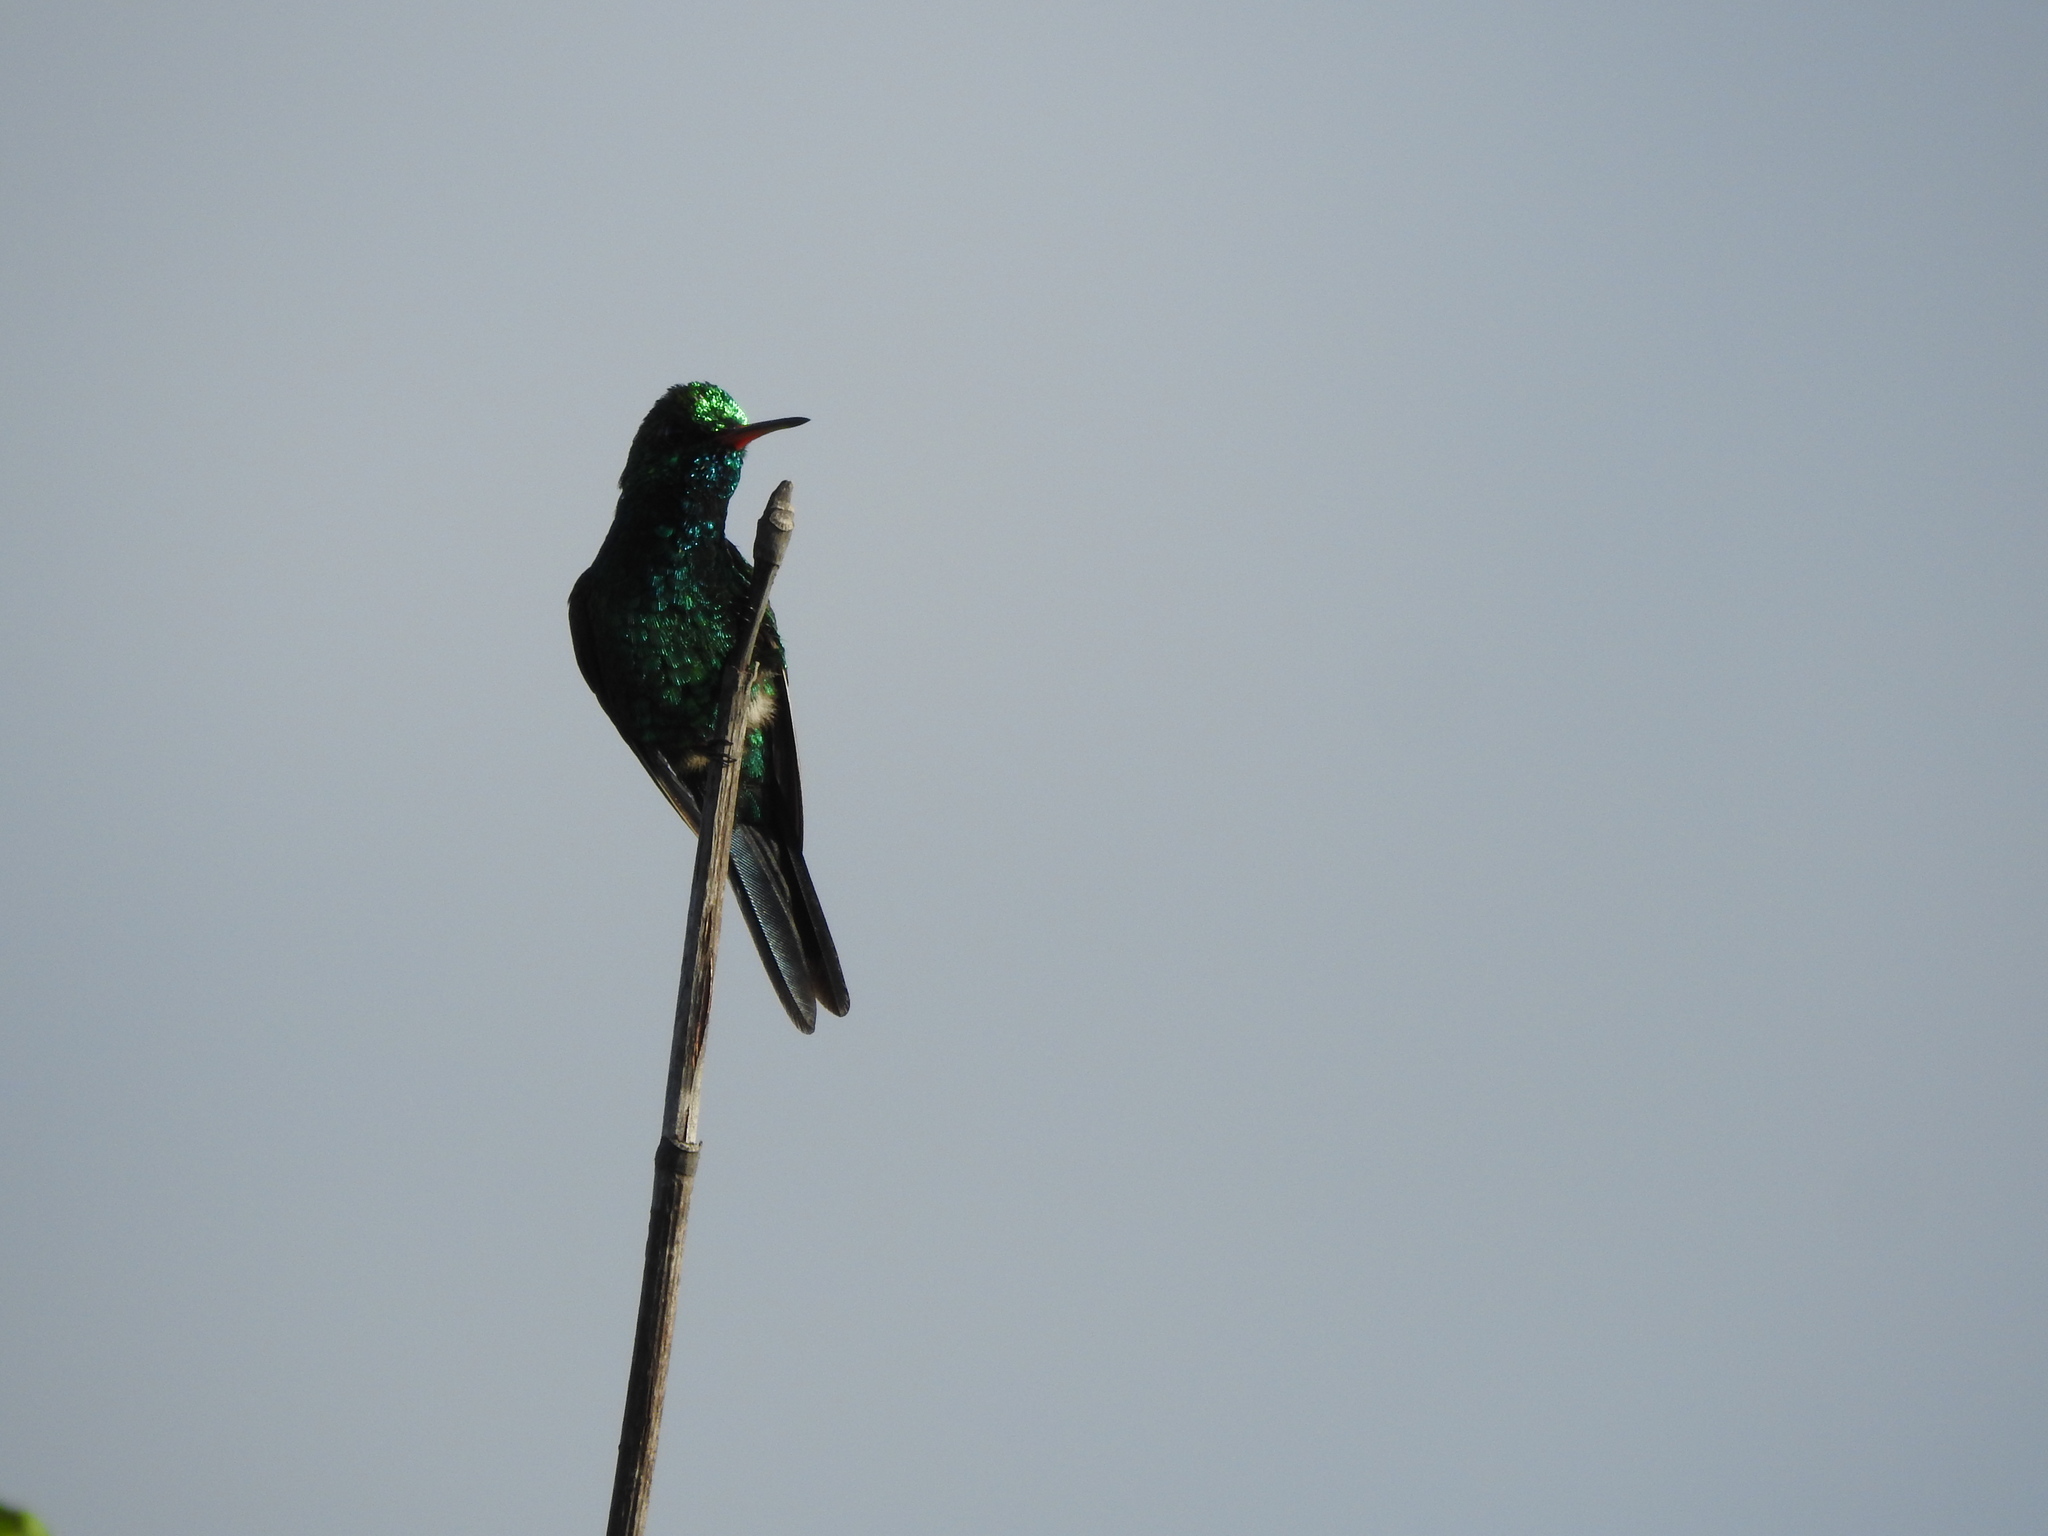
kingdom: Animalia
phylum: Chordata
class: Aves
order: Apodiformes
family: Trochilidae
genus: Cynanthus
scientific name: Cynanthus forficatus
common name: Cozumel emerald
